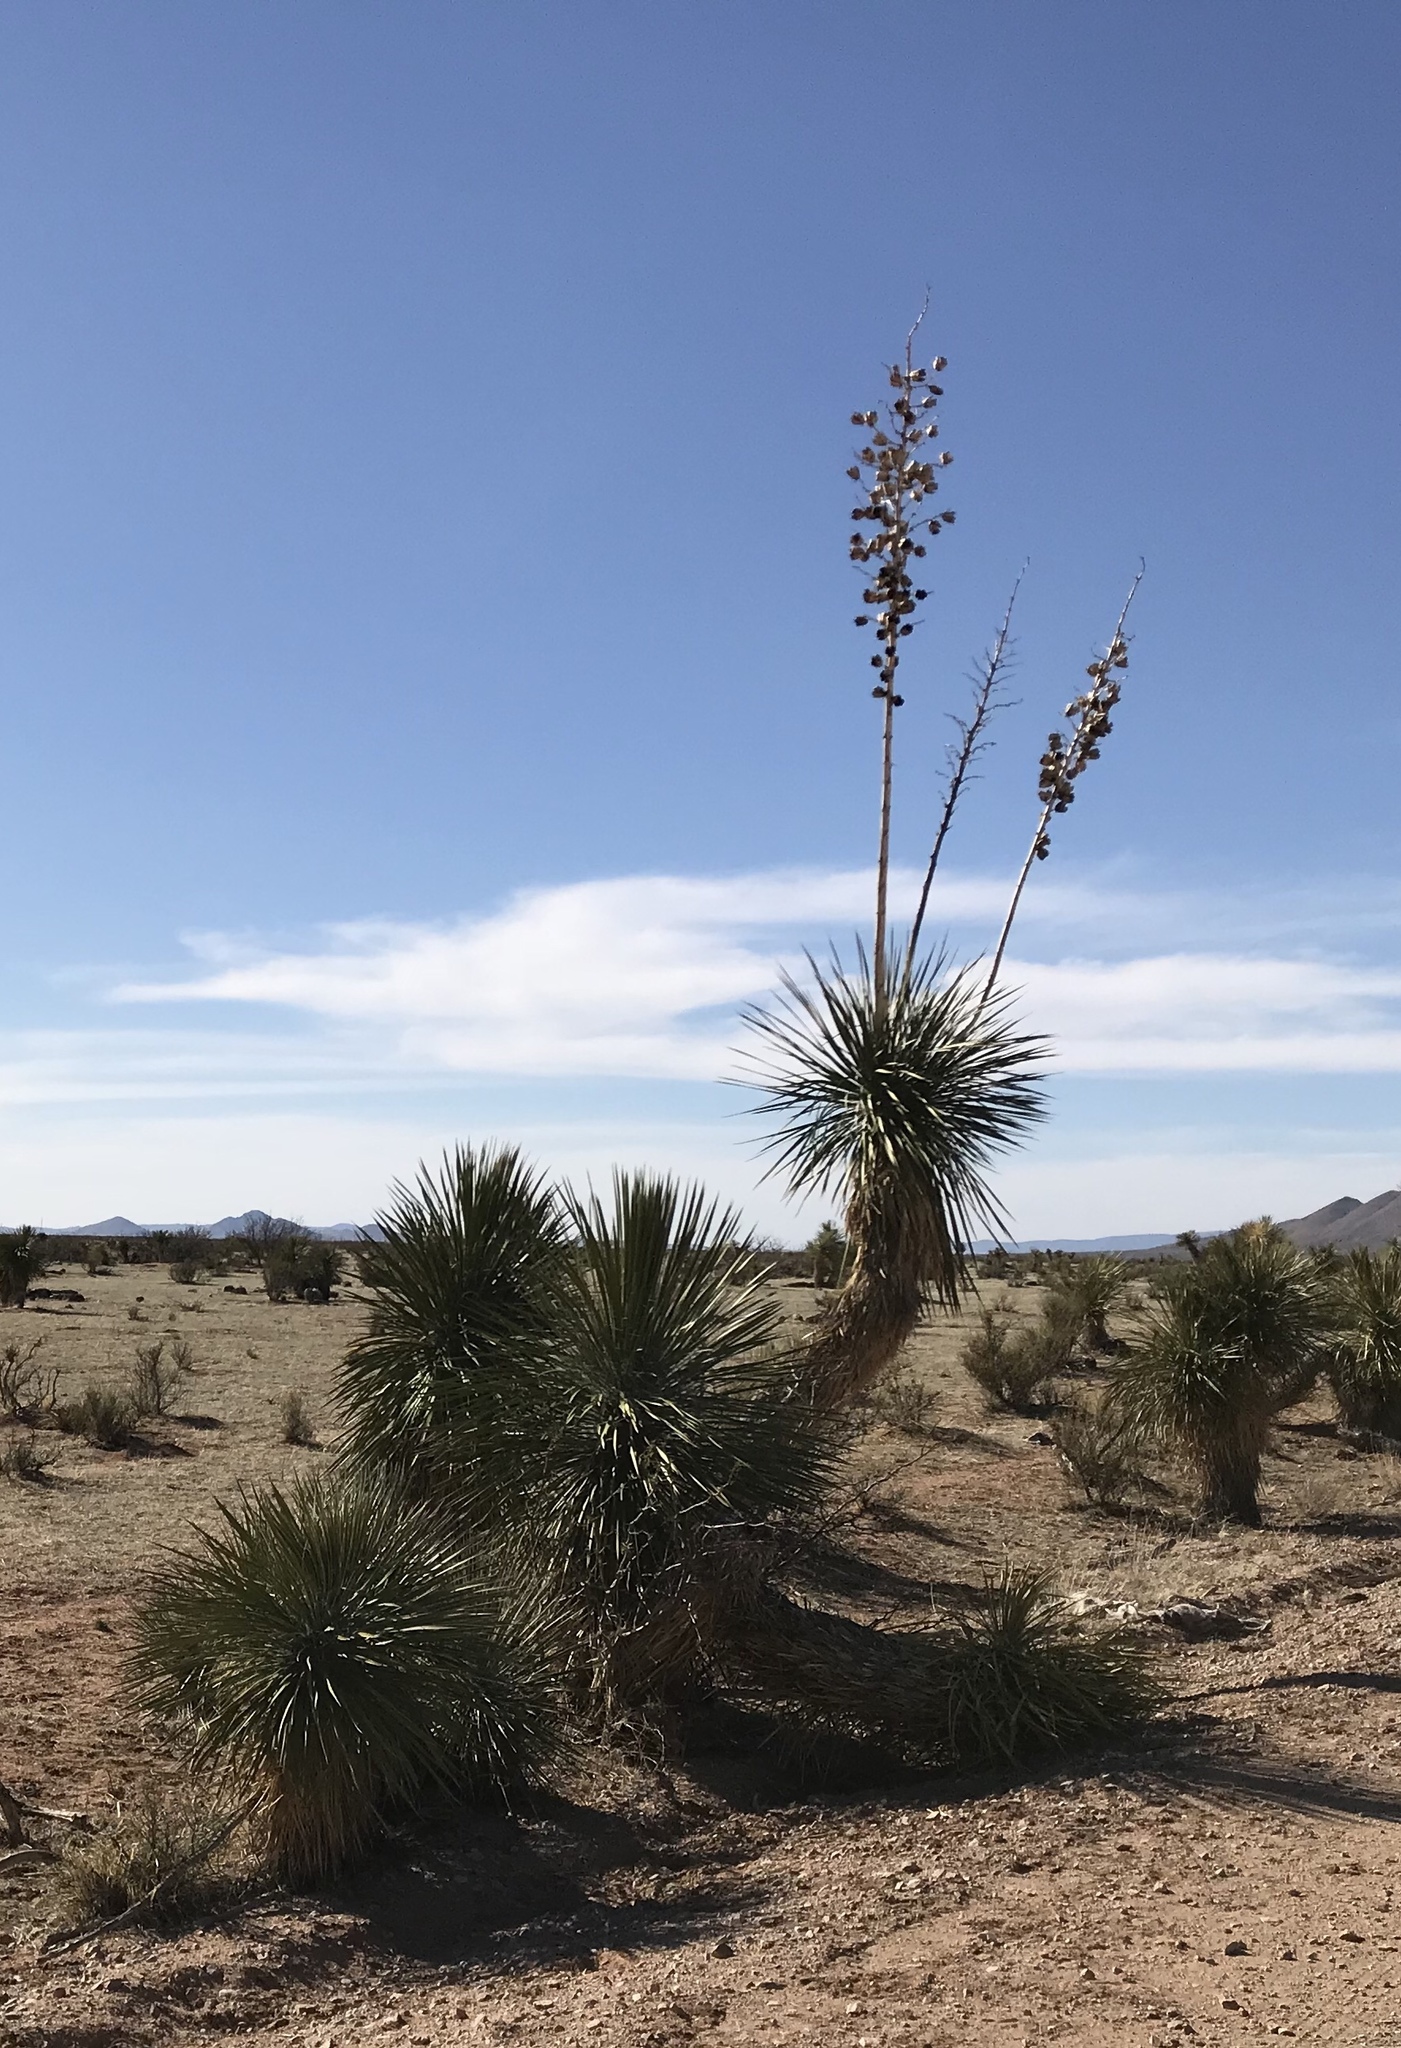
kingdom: Plantae
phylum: Tracheophyta
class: Liliopsida
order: Asparagales
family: Asparagaceae
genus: Yucca
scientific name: Yucca elata
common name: Palmella
